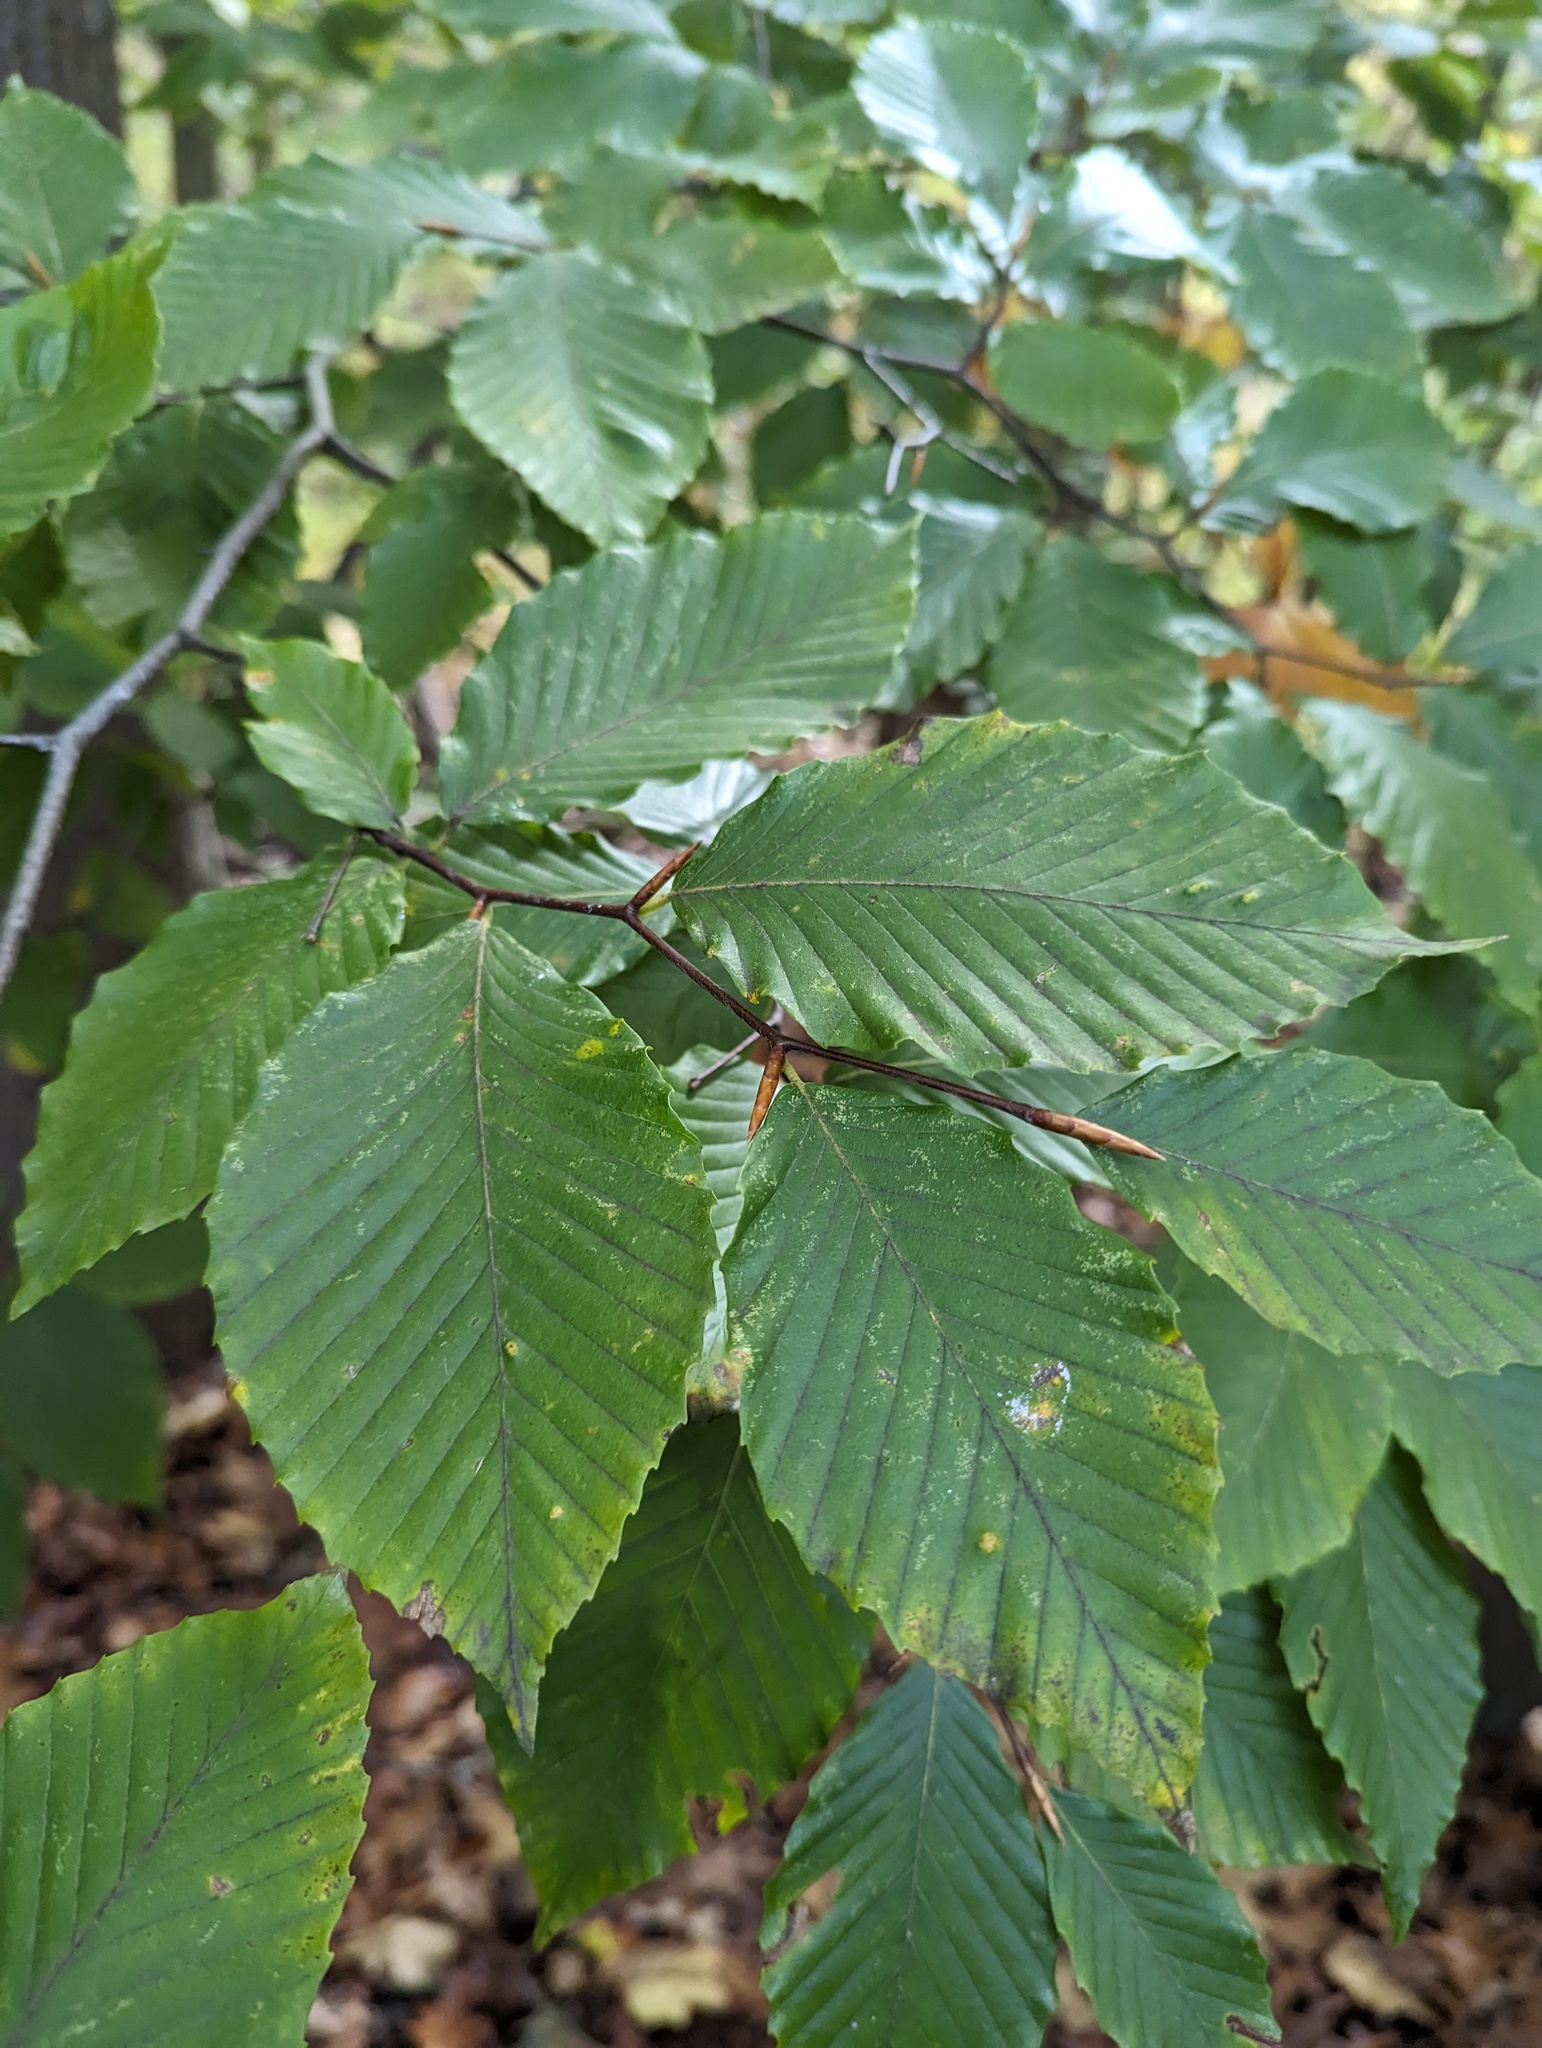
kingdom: Plantae
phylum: Tracheophyta
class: Magnoliopsida
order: Fagales
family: Fagaceae
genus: Fagus
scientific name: Fagus grandifolia
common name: American beech
